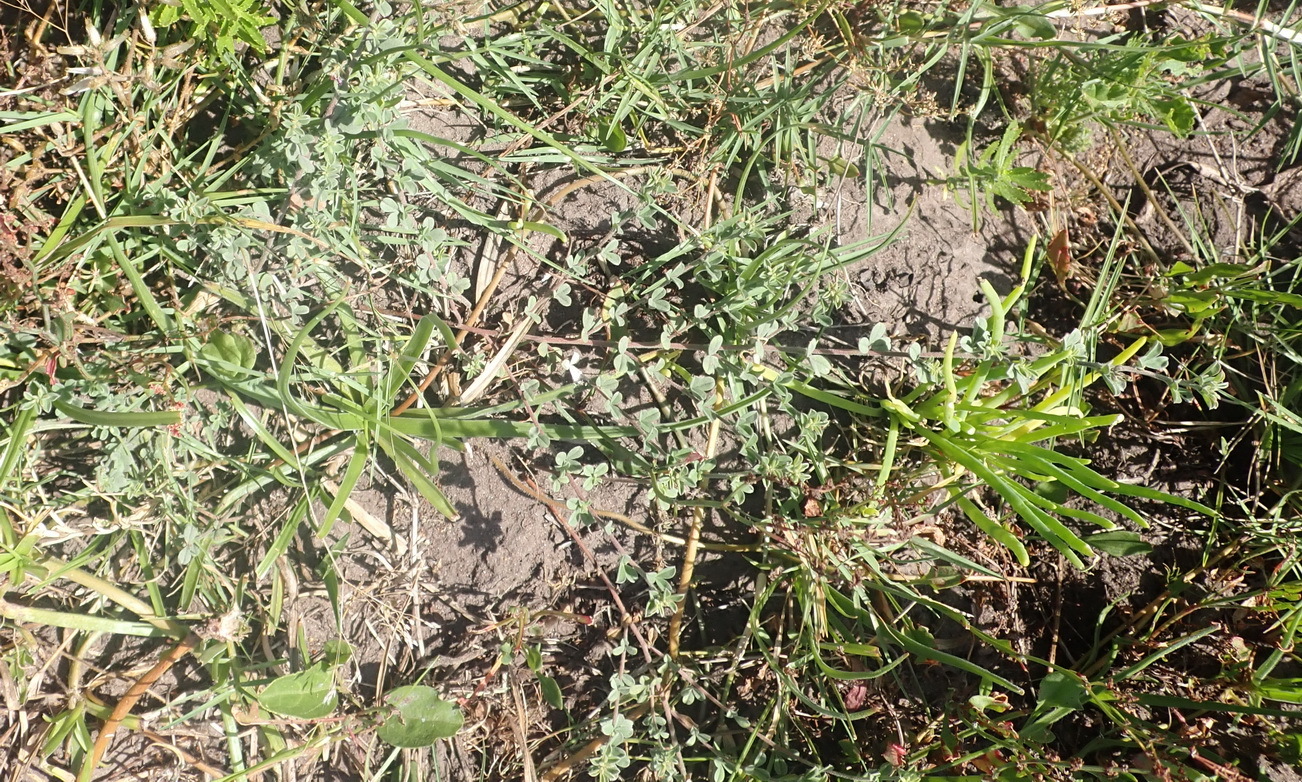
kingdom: Plantae
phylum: Tracheophyta
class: Magnoliopsida
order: Fabales
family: Fabaceae
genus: Indigofera
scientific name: Indigofera heterophylla
